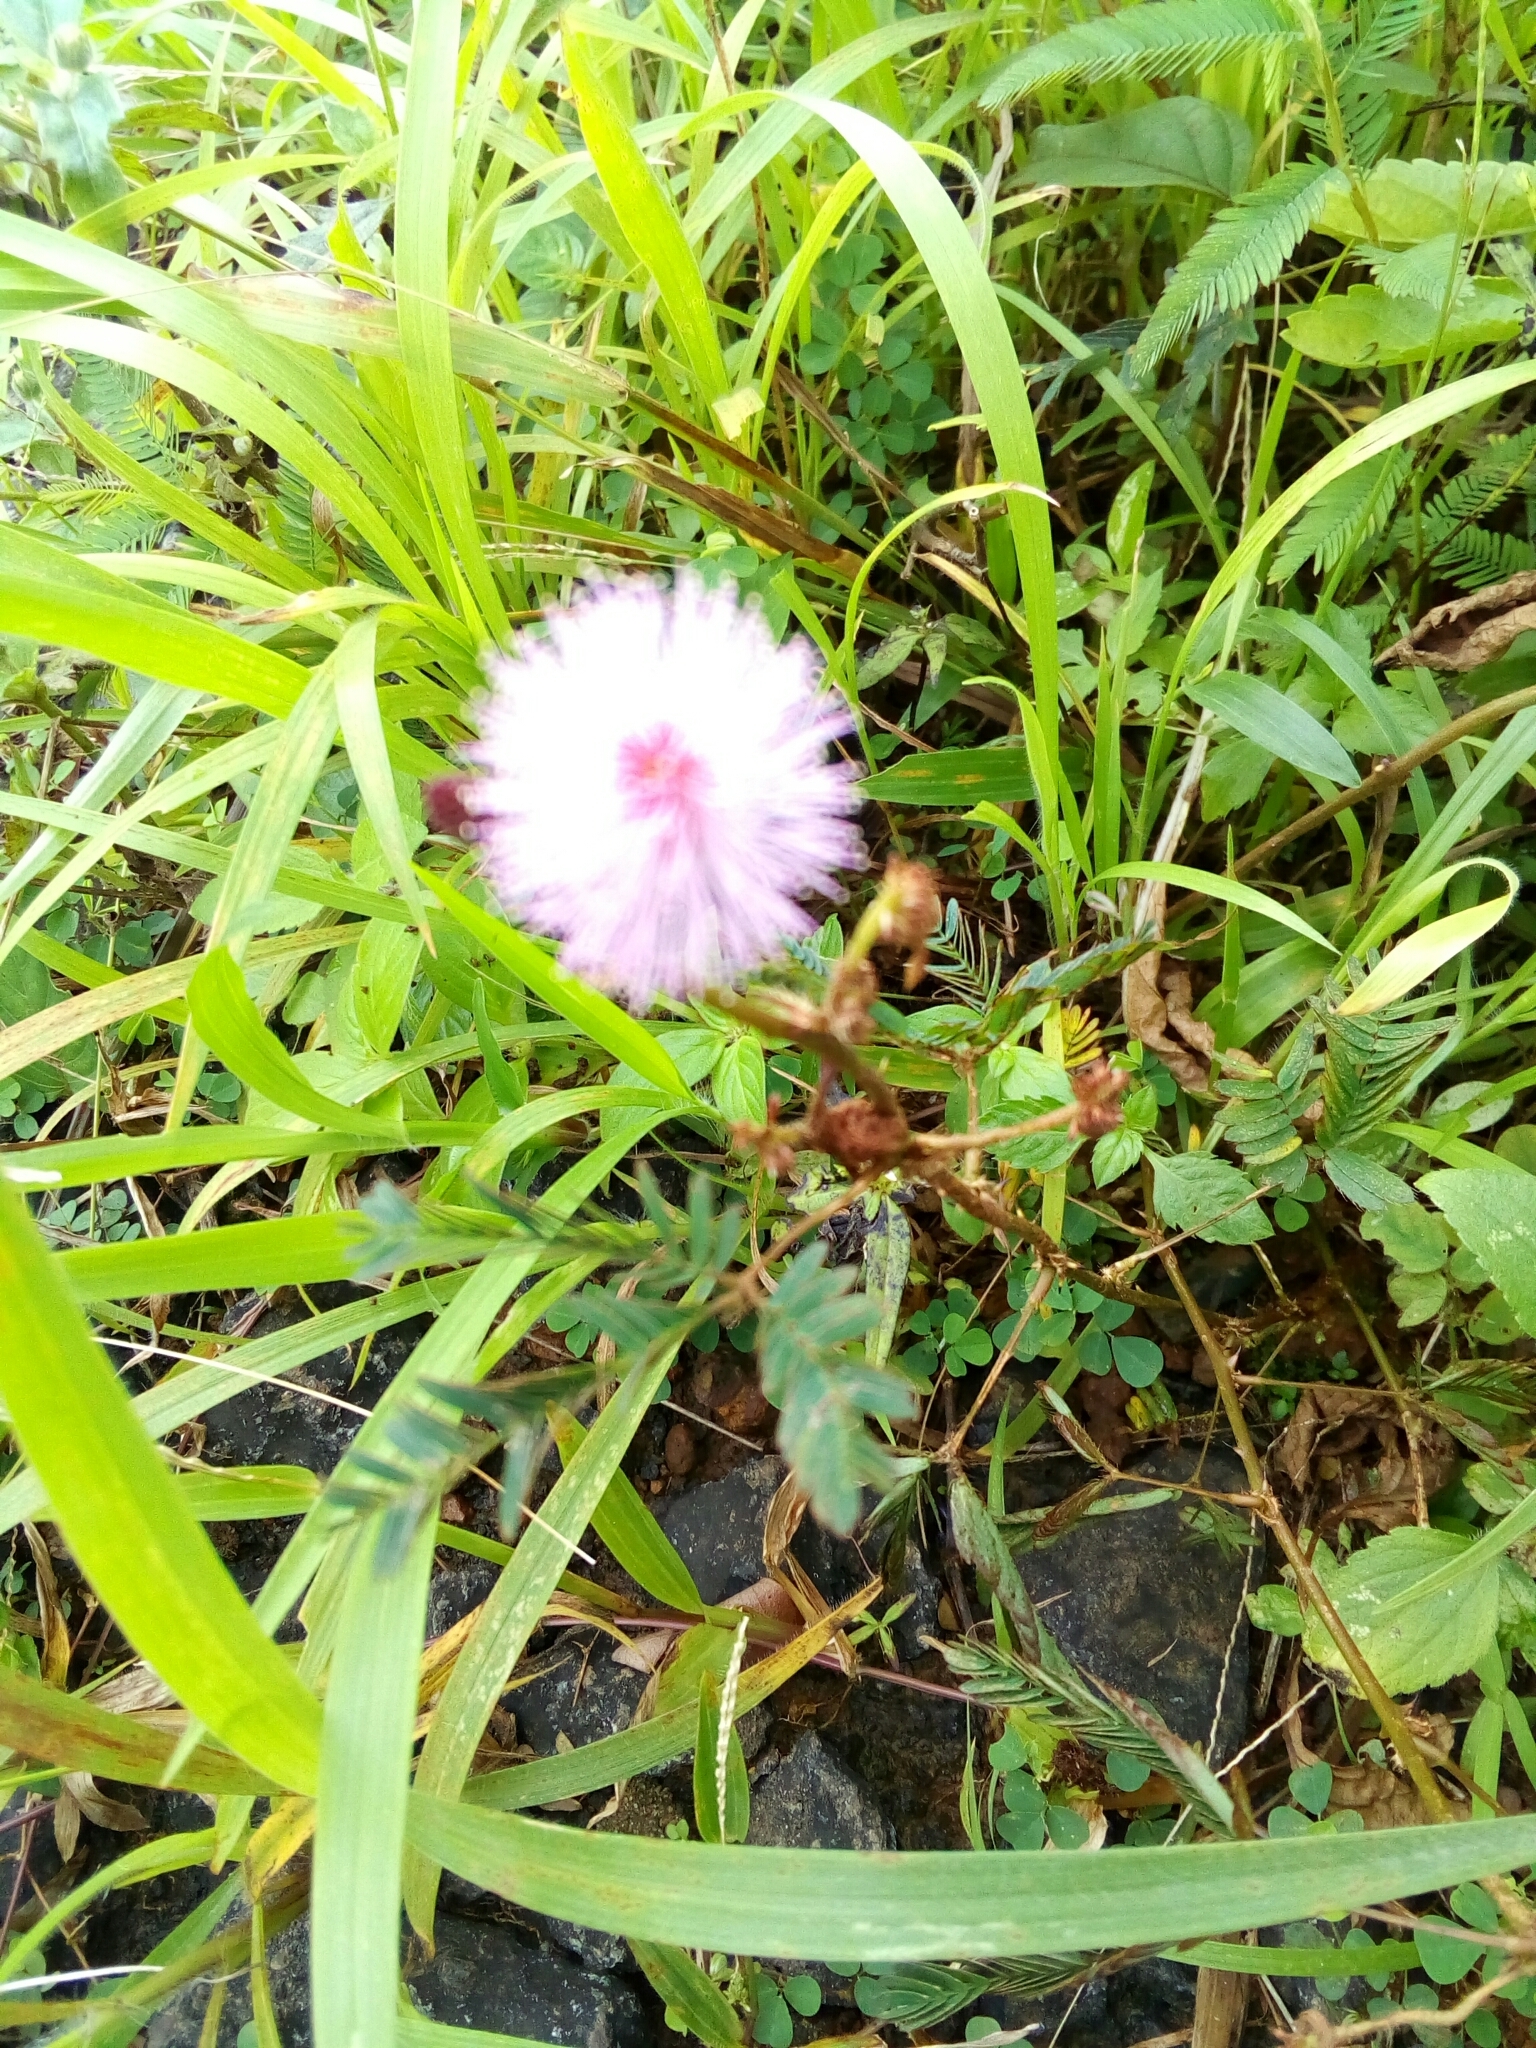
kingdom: Plantae
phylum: Tracheophyta
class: Magnoliopsida
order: Fabales
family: Fabaceae
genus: Mimosa
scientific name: Mimosa pudica
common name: Sensitive plant
